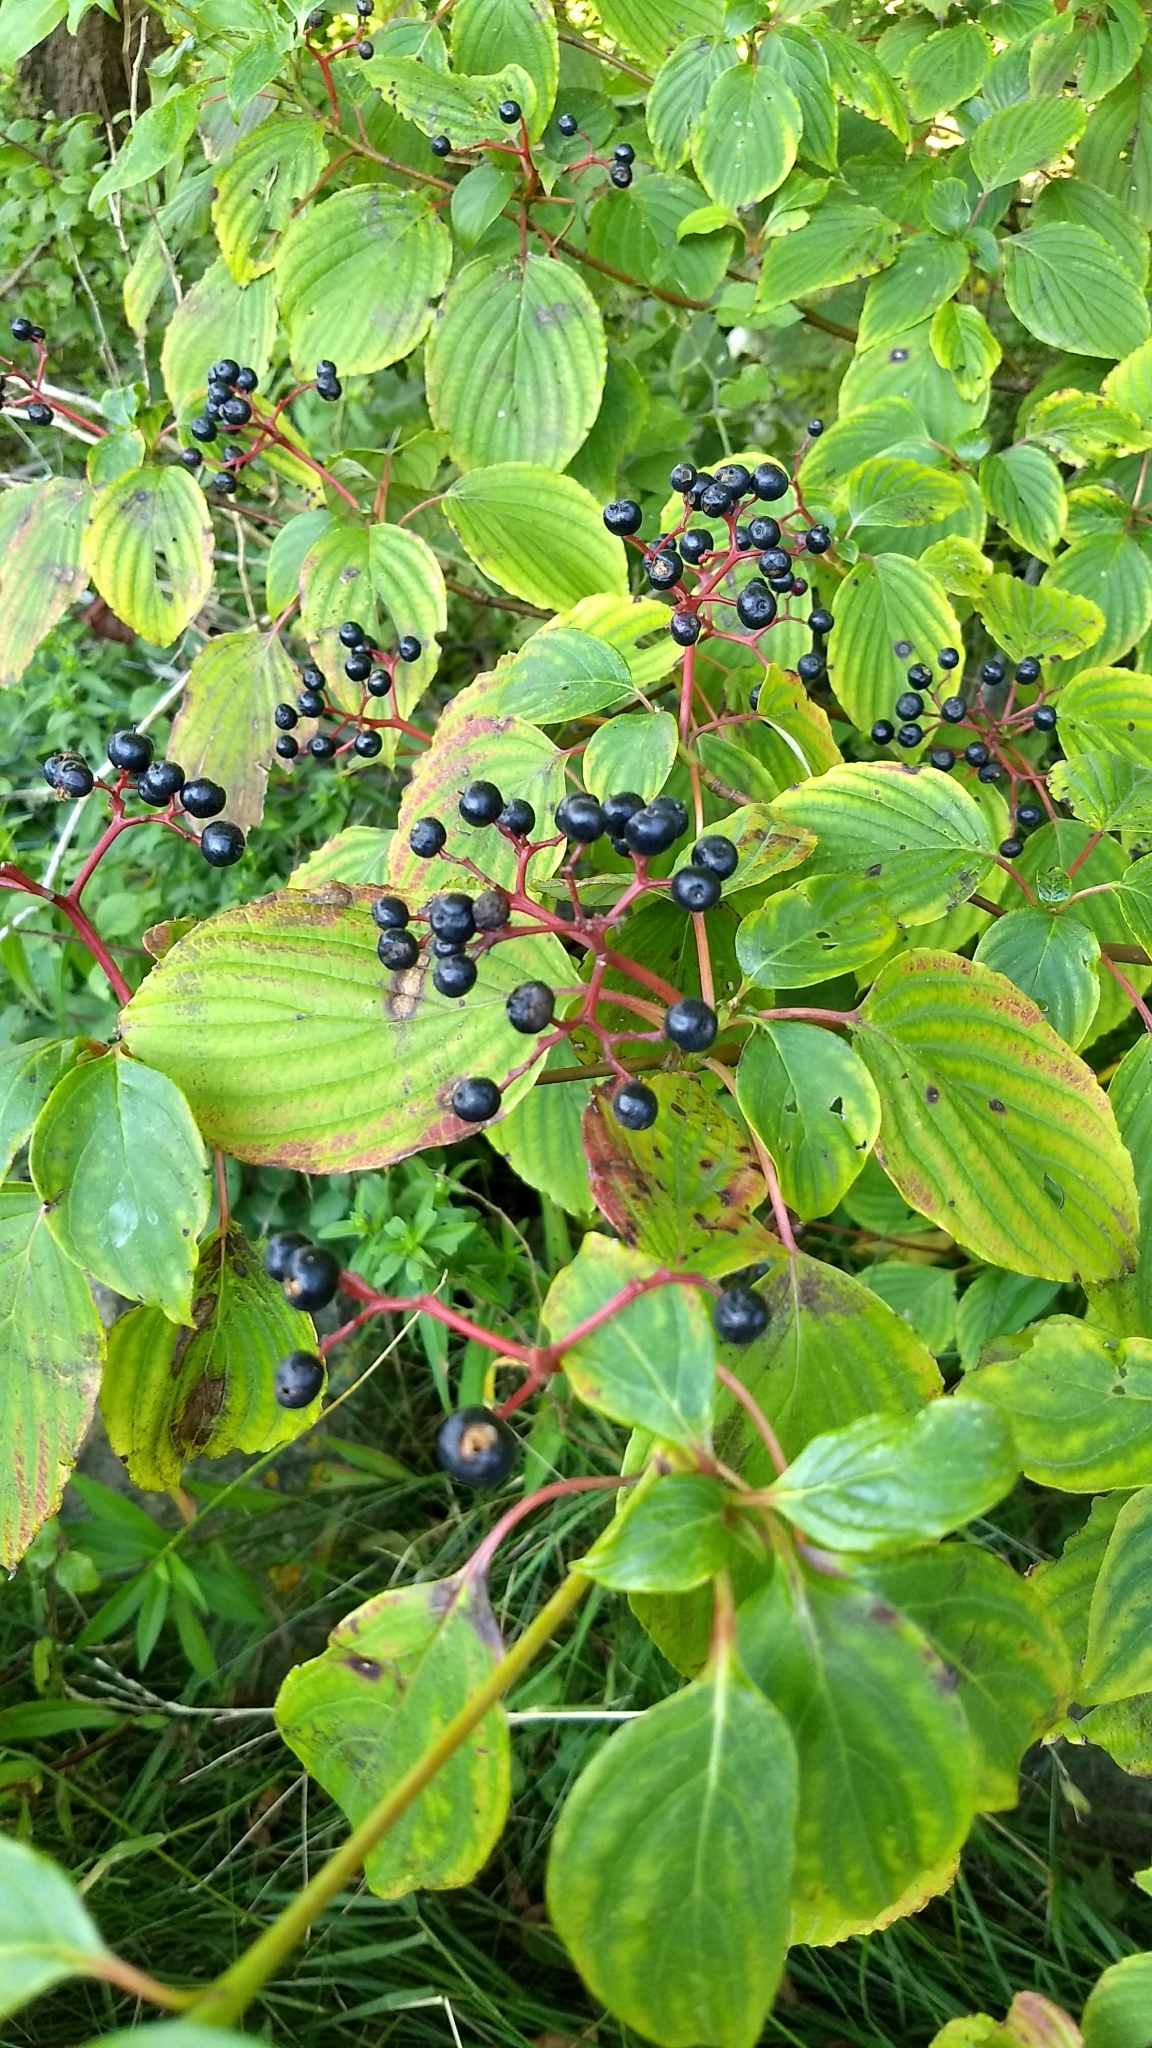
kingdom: Plantae
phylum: Tracheophyta
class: Magnoliopsida
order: Cornales
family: Cornaceae
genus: Cornus
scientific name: Cornus alternifolia
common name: Pagoda dogwood
